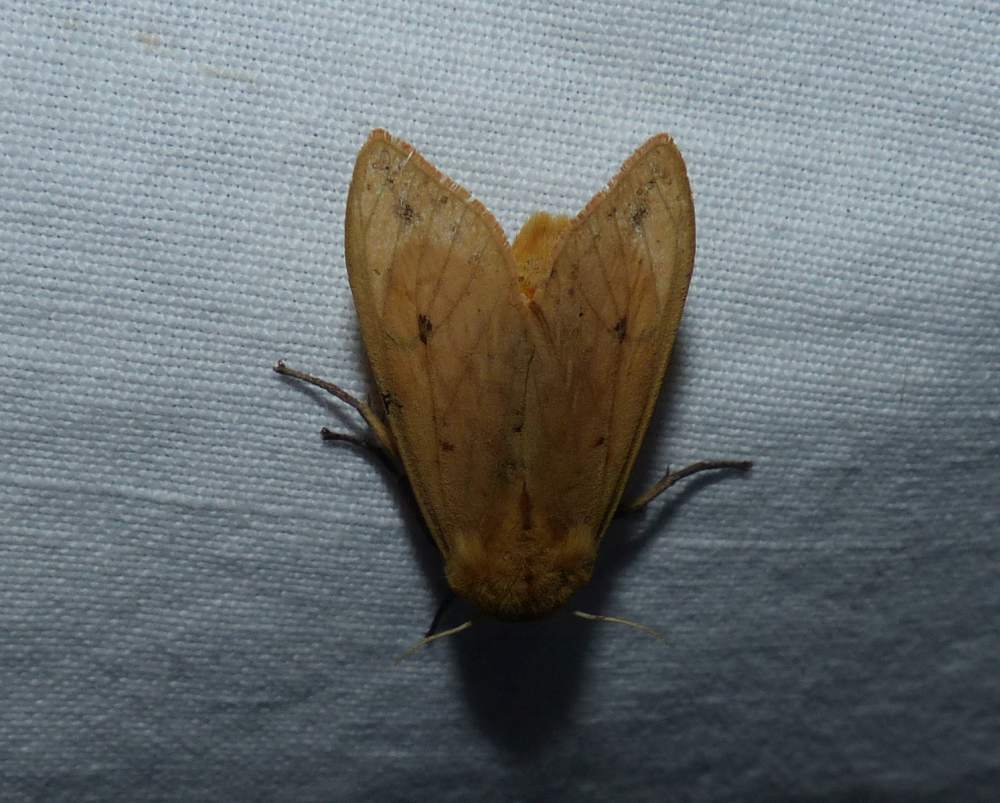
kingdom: Animalia
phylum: Arthropoda
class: Insecta
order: Lepidoptera
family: Erebidae
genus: Pyrrharctia
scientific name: Pyrrharctia isabella
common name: Isabella tiger moth
